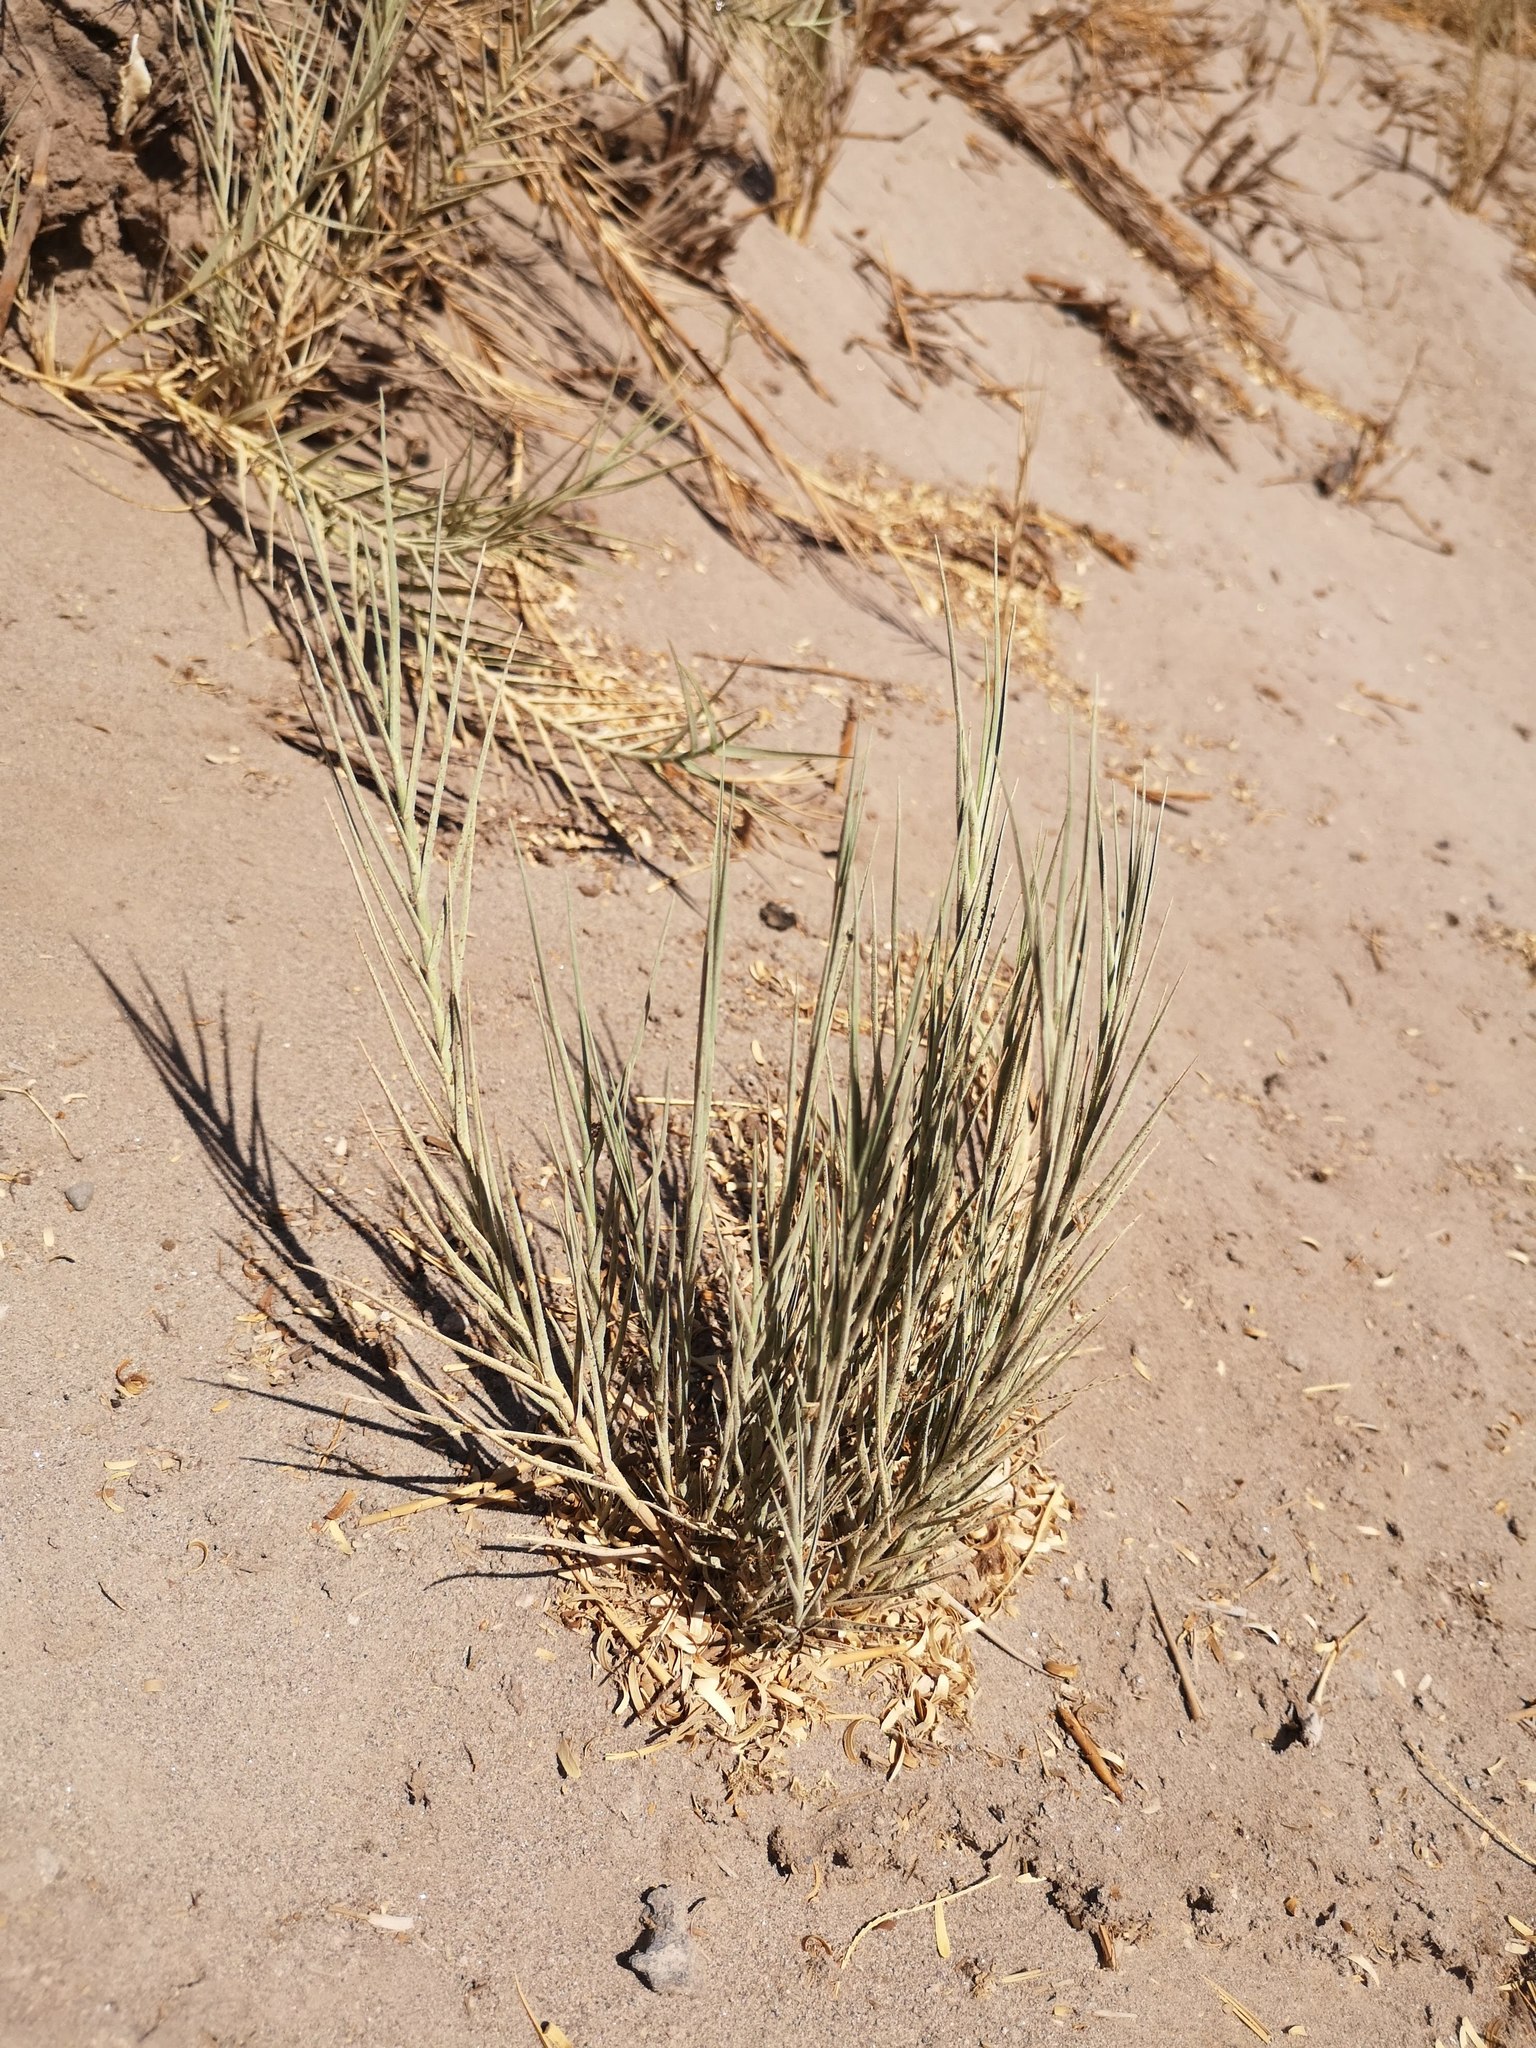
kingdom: Plantae
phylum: Tracheophyta
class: Liliopsida
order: Poales
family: Poaceae
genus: Distichlis
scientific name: Distichlis spicata
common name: Saltgrass
